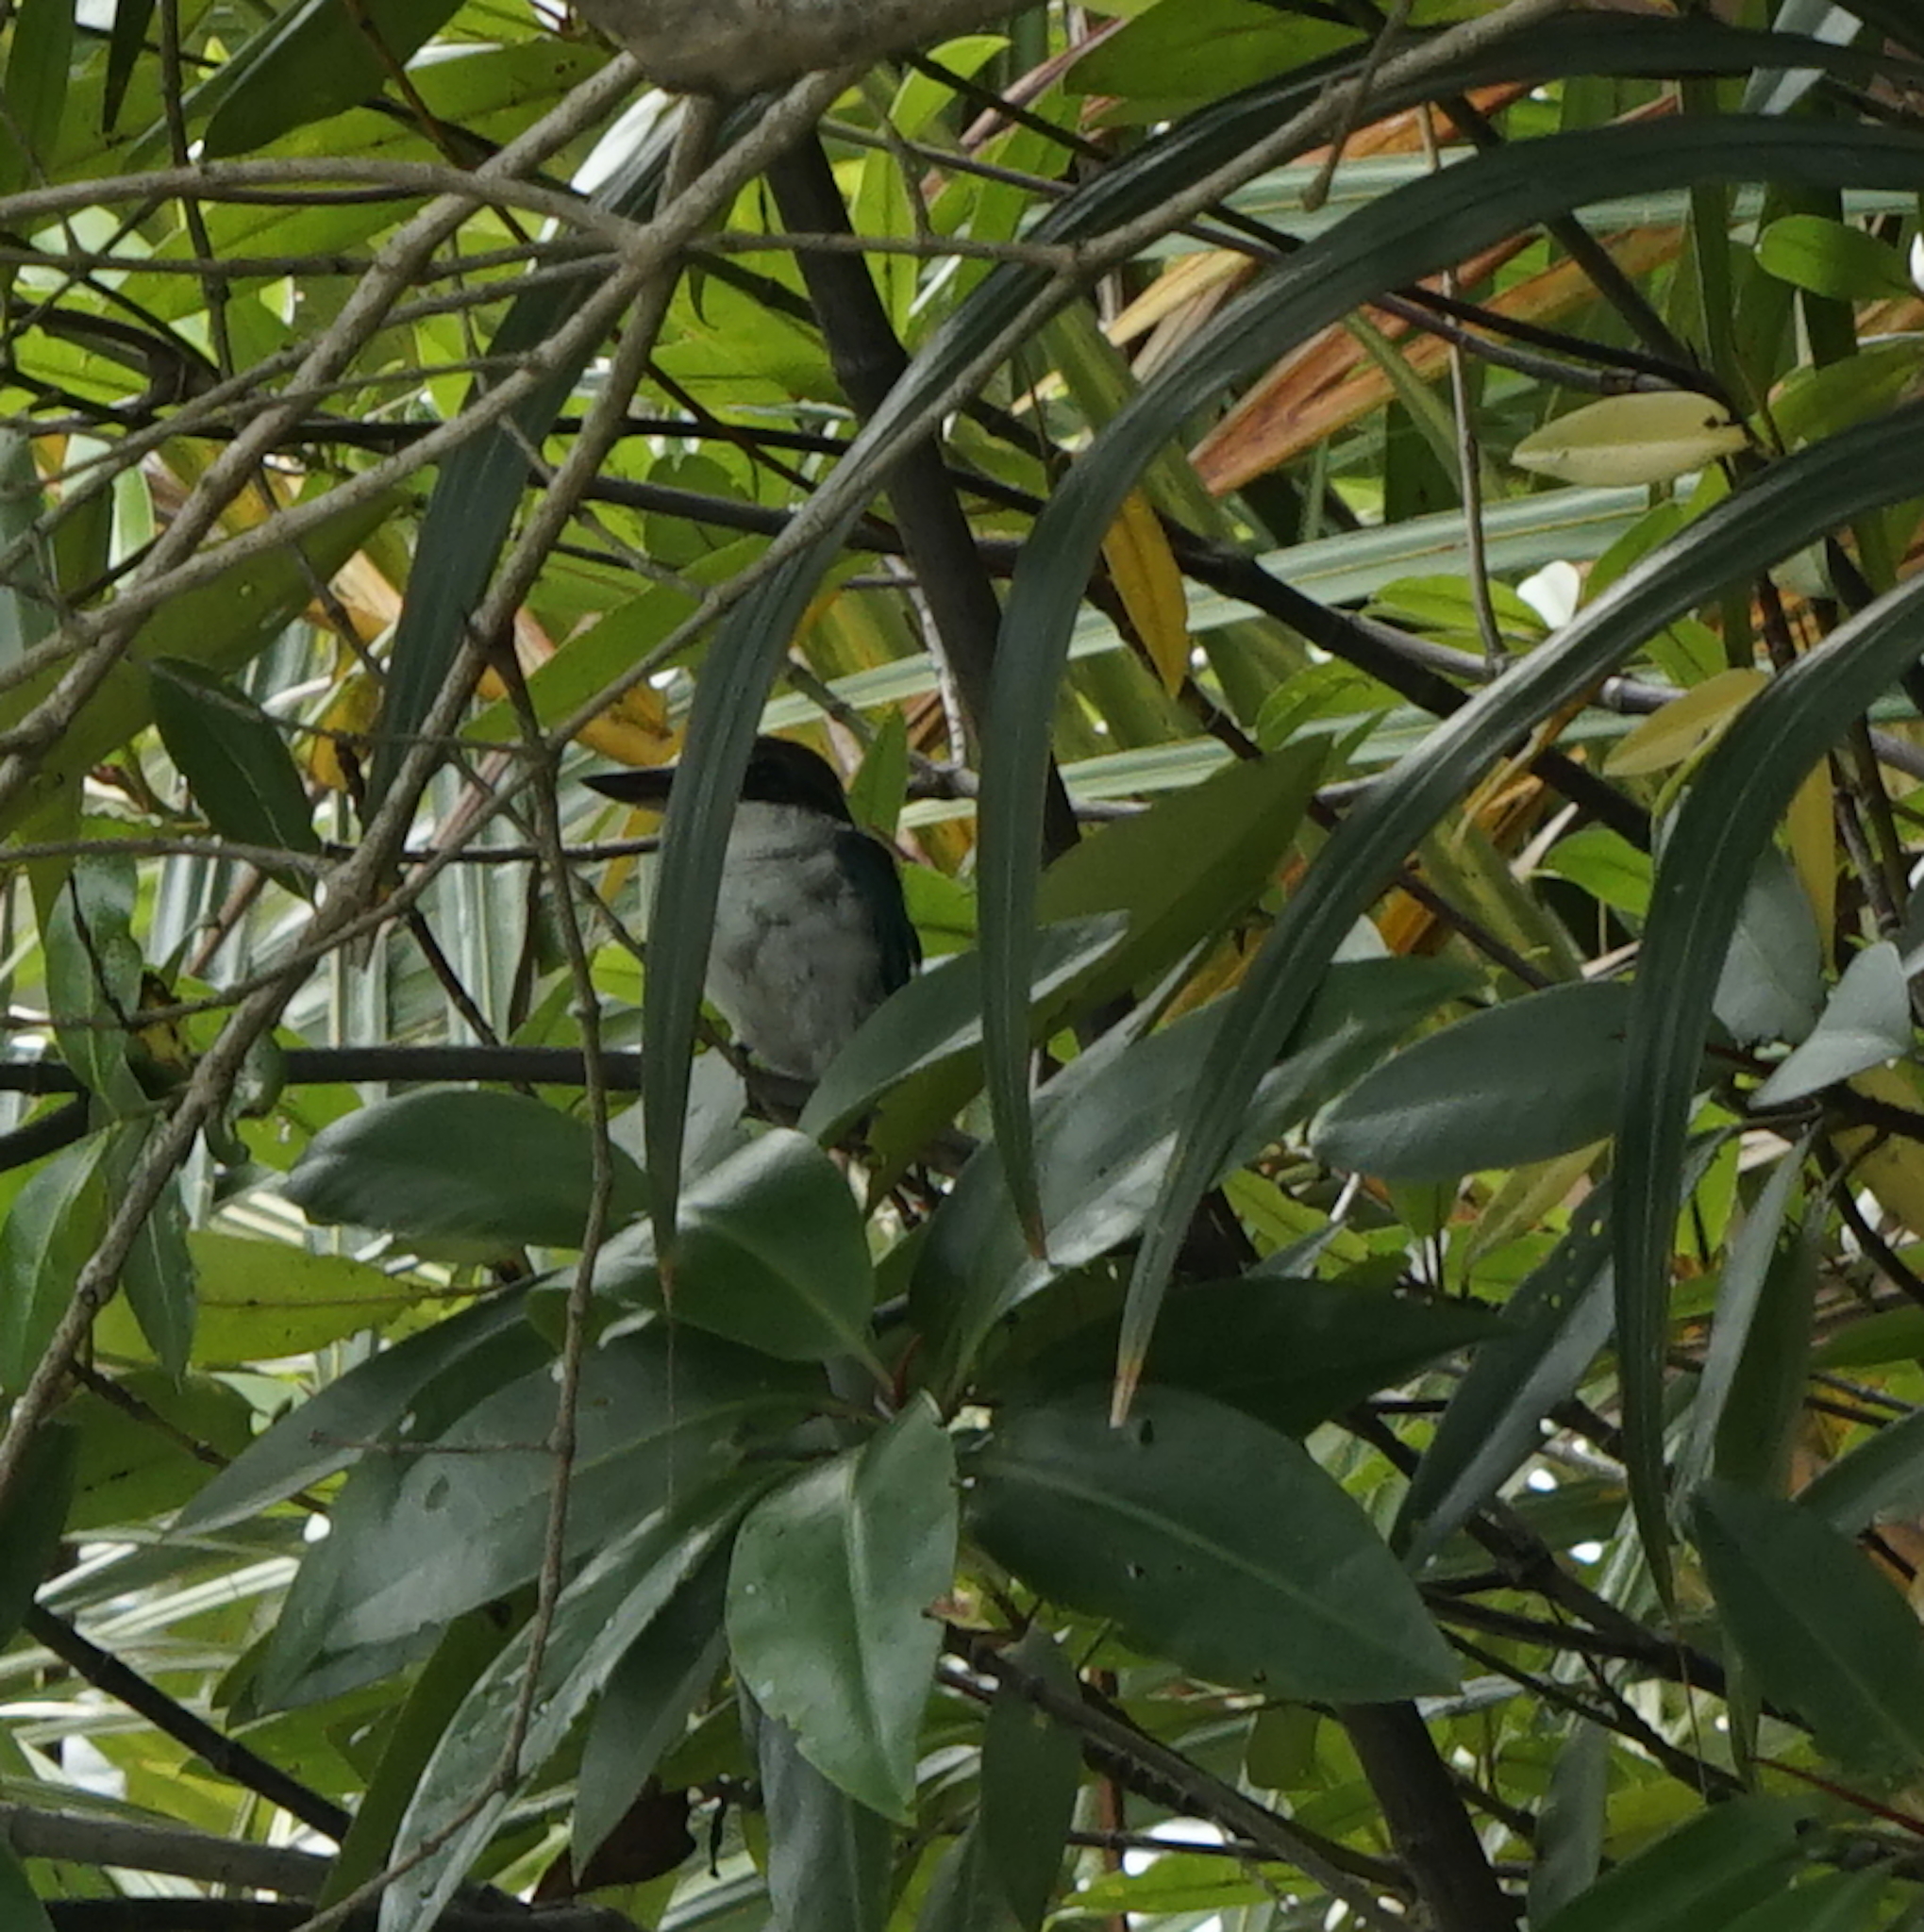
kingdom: Animalia
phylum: Chordata
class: Aves
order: Coraciiformes
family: Alcedinidae
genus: Todiramphus
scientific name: Todiramphus chloris
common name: Collared kingfisher
